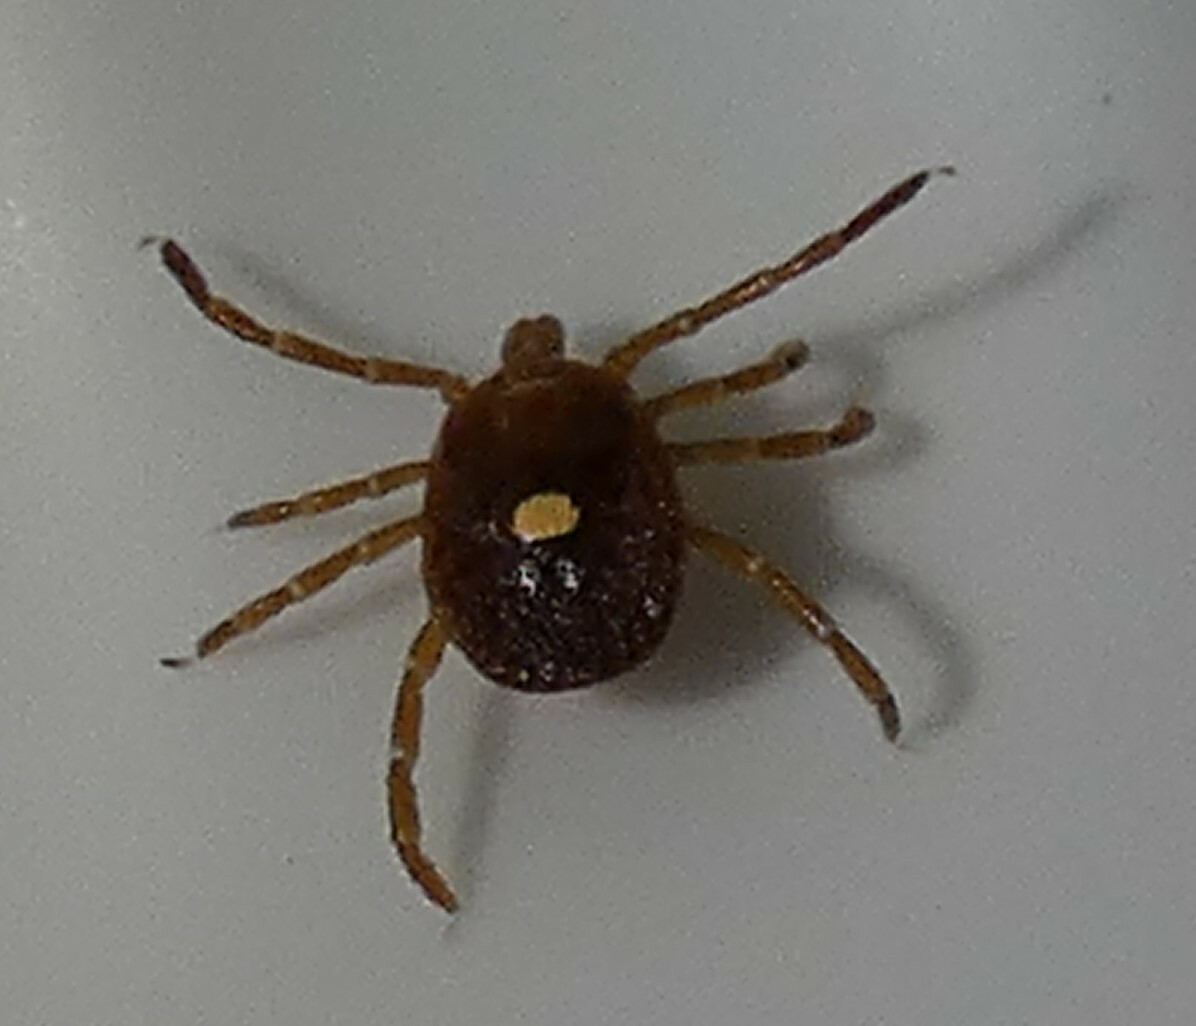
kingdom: Animalia
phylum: Arthropoda
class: Arachnida
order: Ixodida
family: Ixodidae
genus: Amblyomma
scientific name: Amblyomma americanum
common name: Lone star tick
